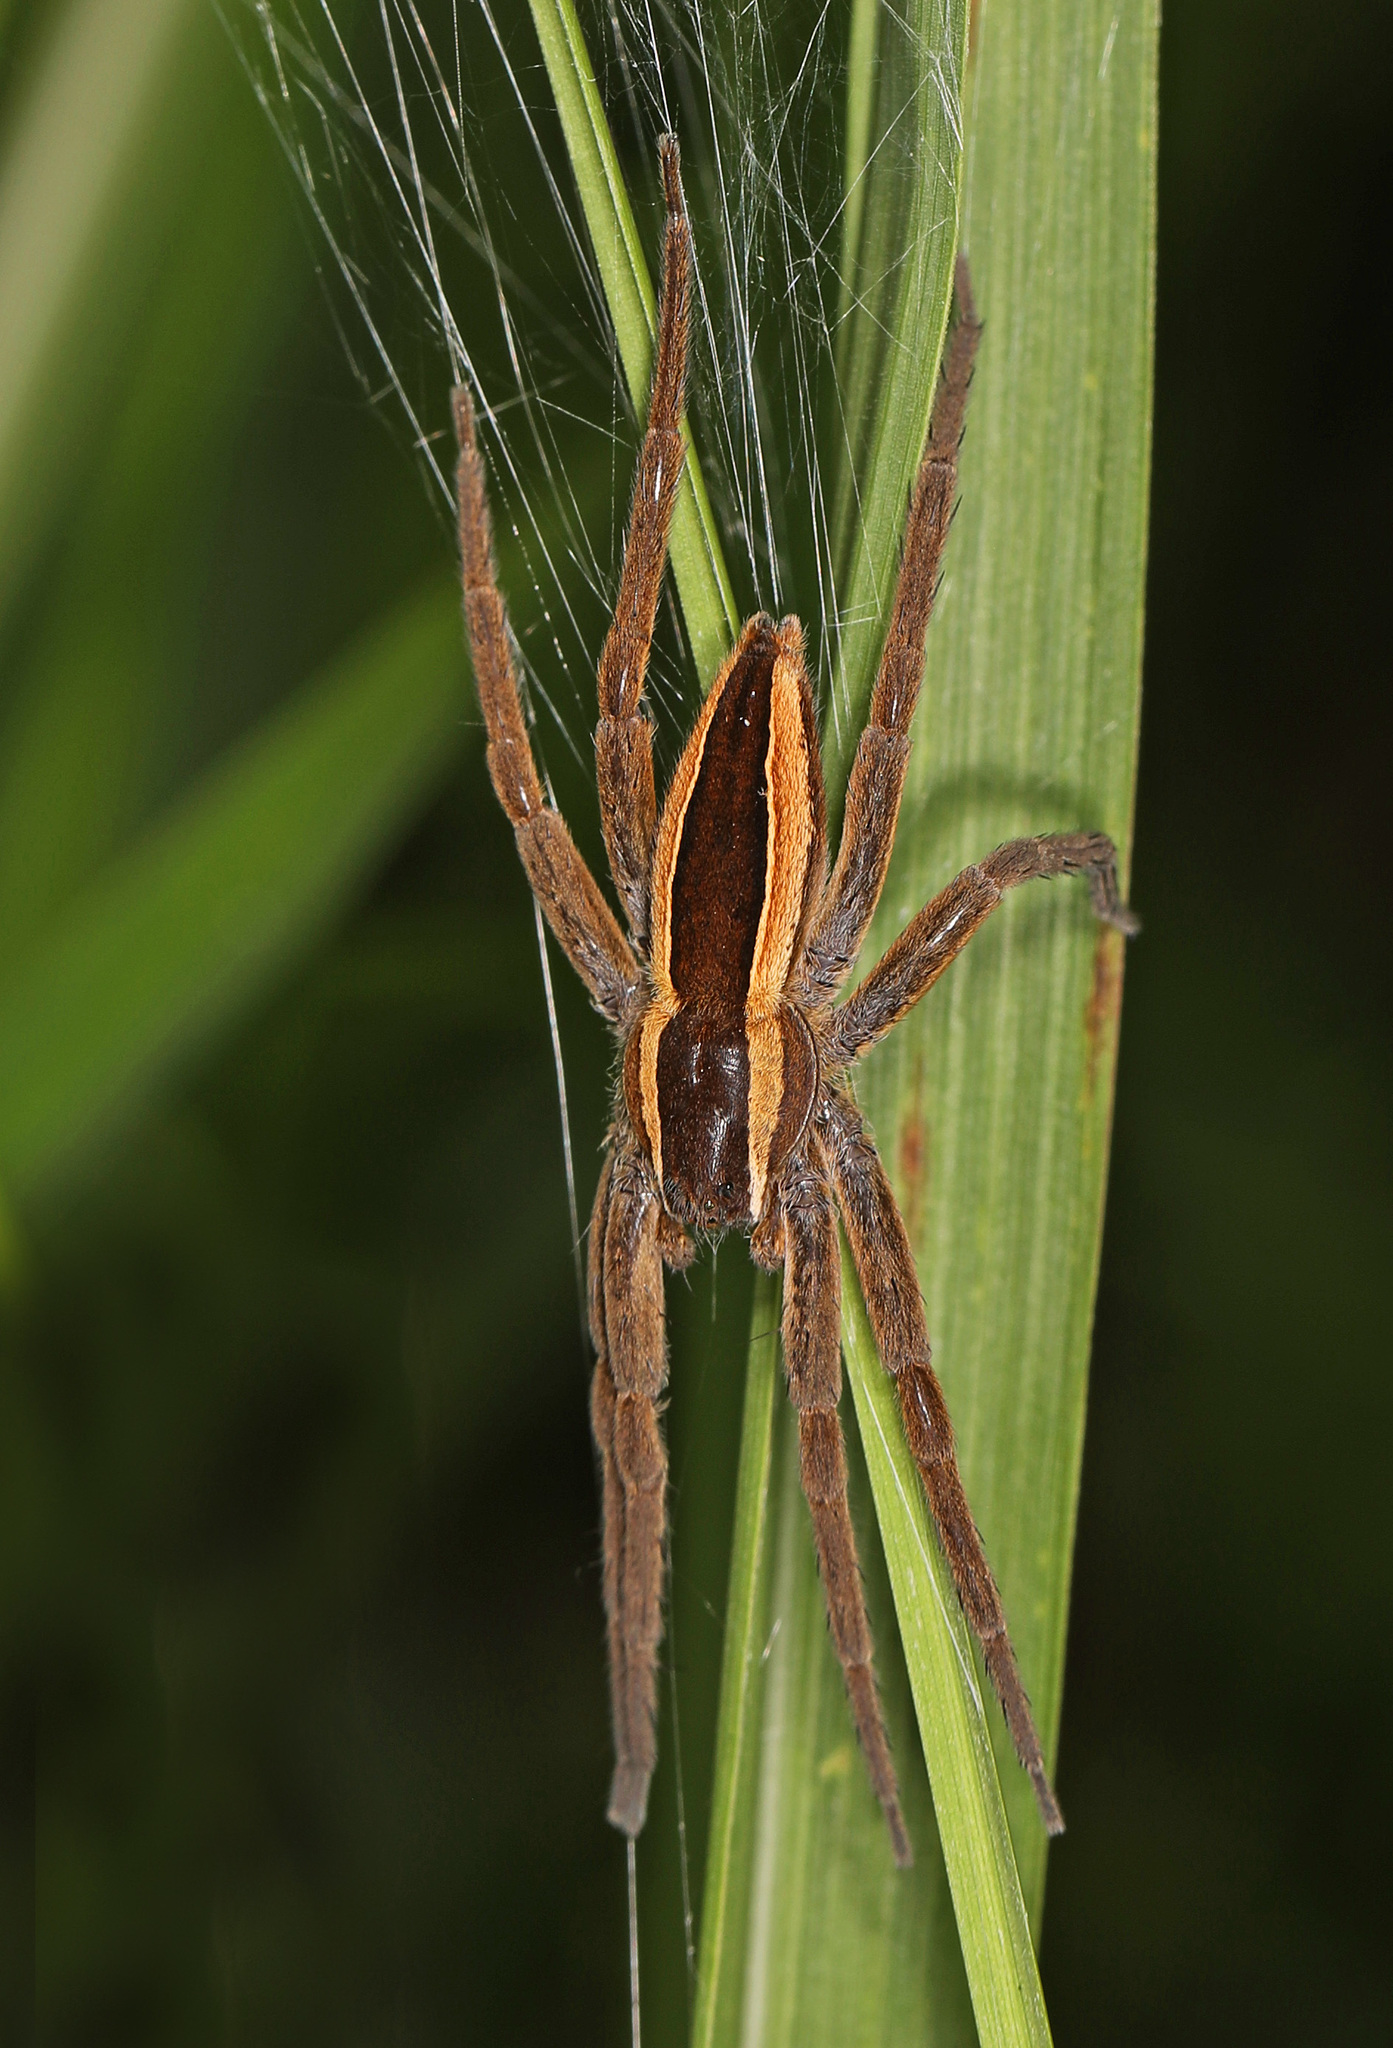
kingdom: Animalia
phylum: Arthropoda
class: Arachnida
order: Araneae
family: Pisauridae
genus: Pisaurina
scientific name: Pisaurina brevipes
